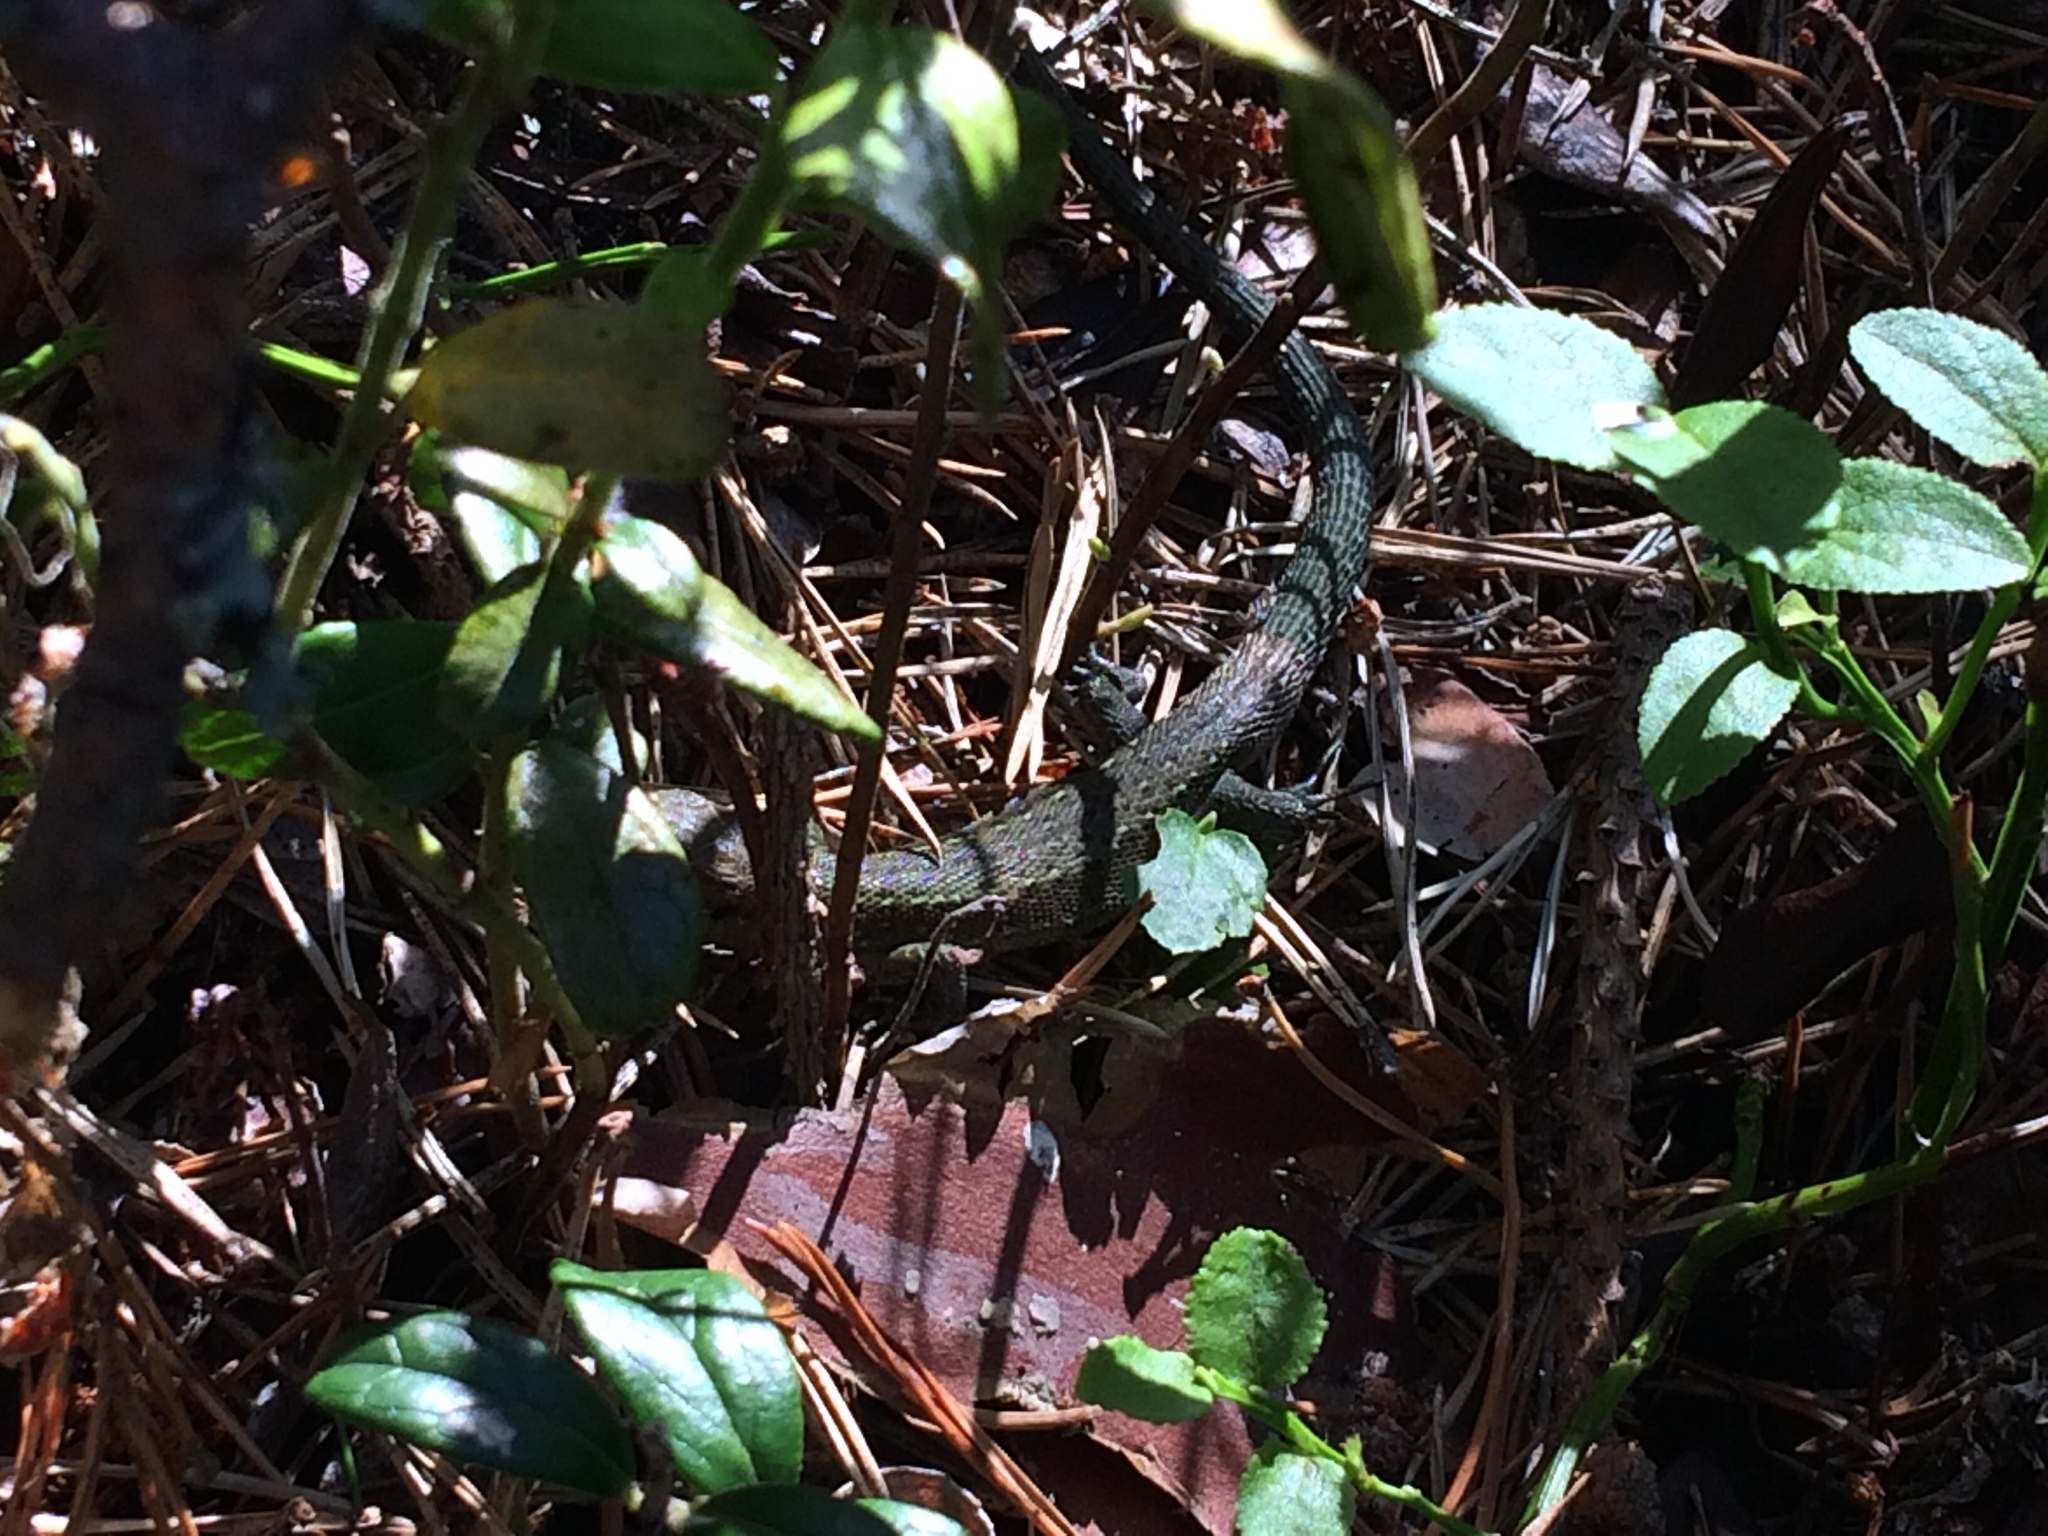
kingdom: Animalia
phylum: Chordata
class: Squamata
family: Lacertidae
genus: Zootoca
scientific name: Zootoca vivipara
